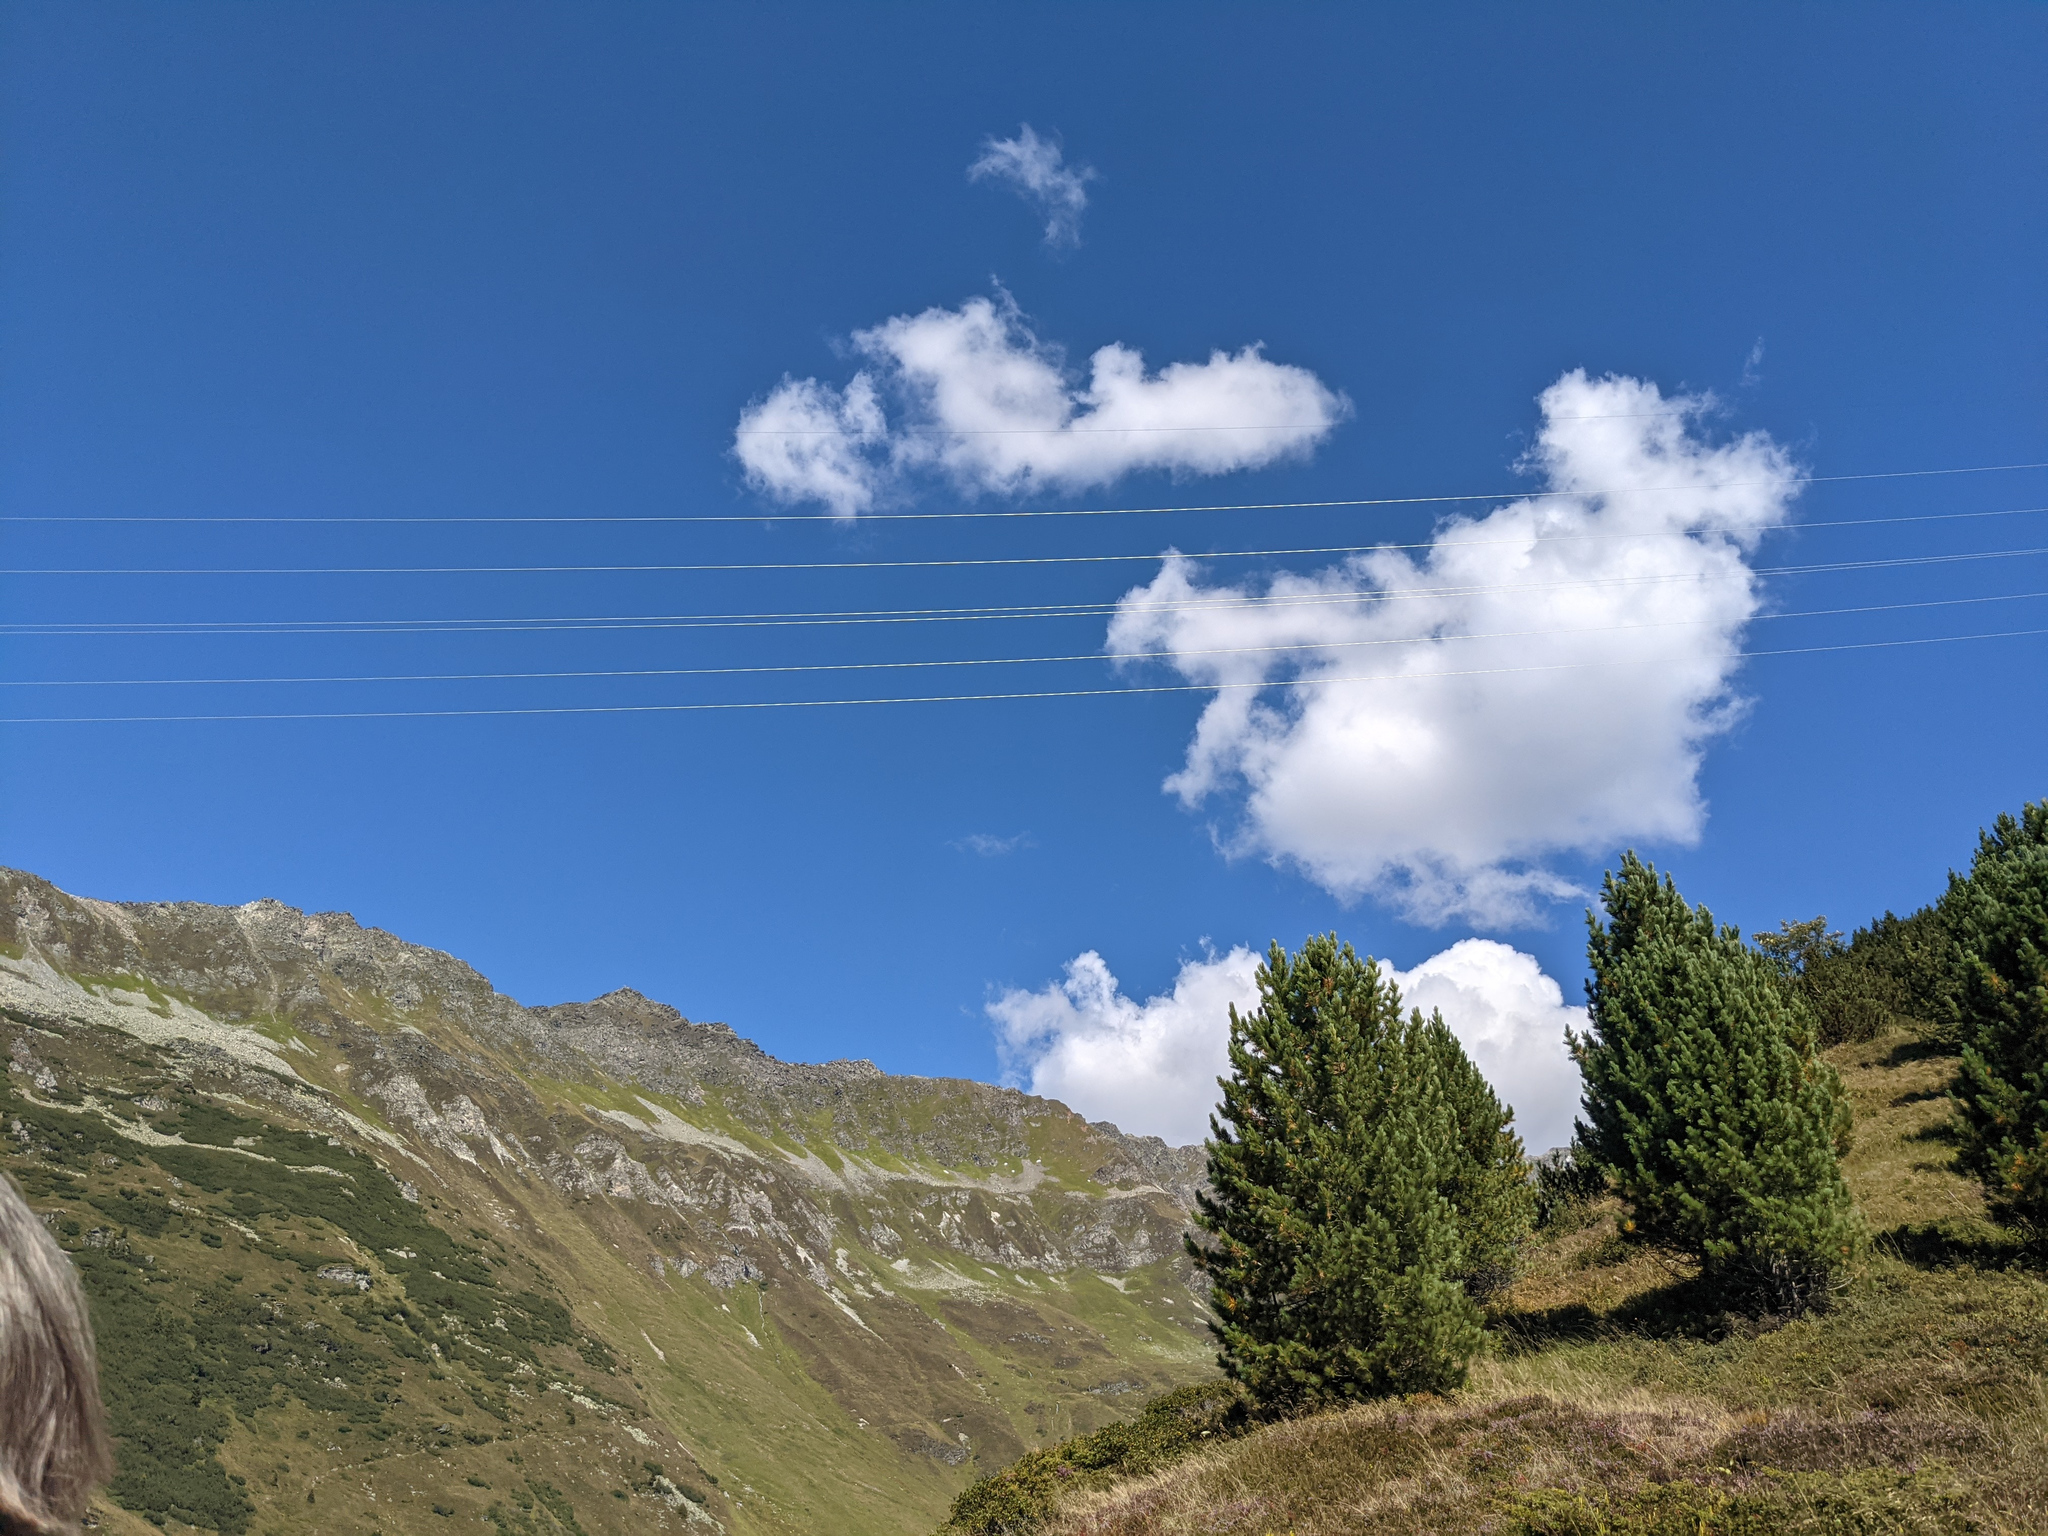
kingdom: Plantae
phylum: Tracheophyta
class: Pinopsida
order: Pinales
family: Pinaceae
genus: Pinus
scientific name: Pinus cembra
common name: Arolla pine
